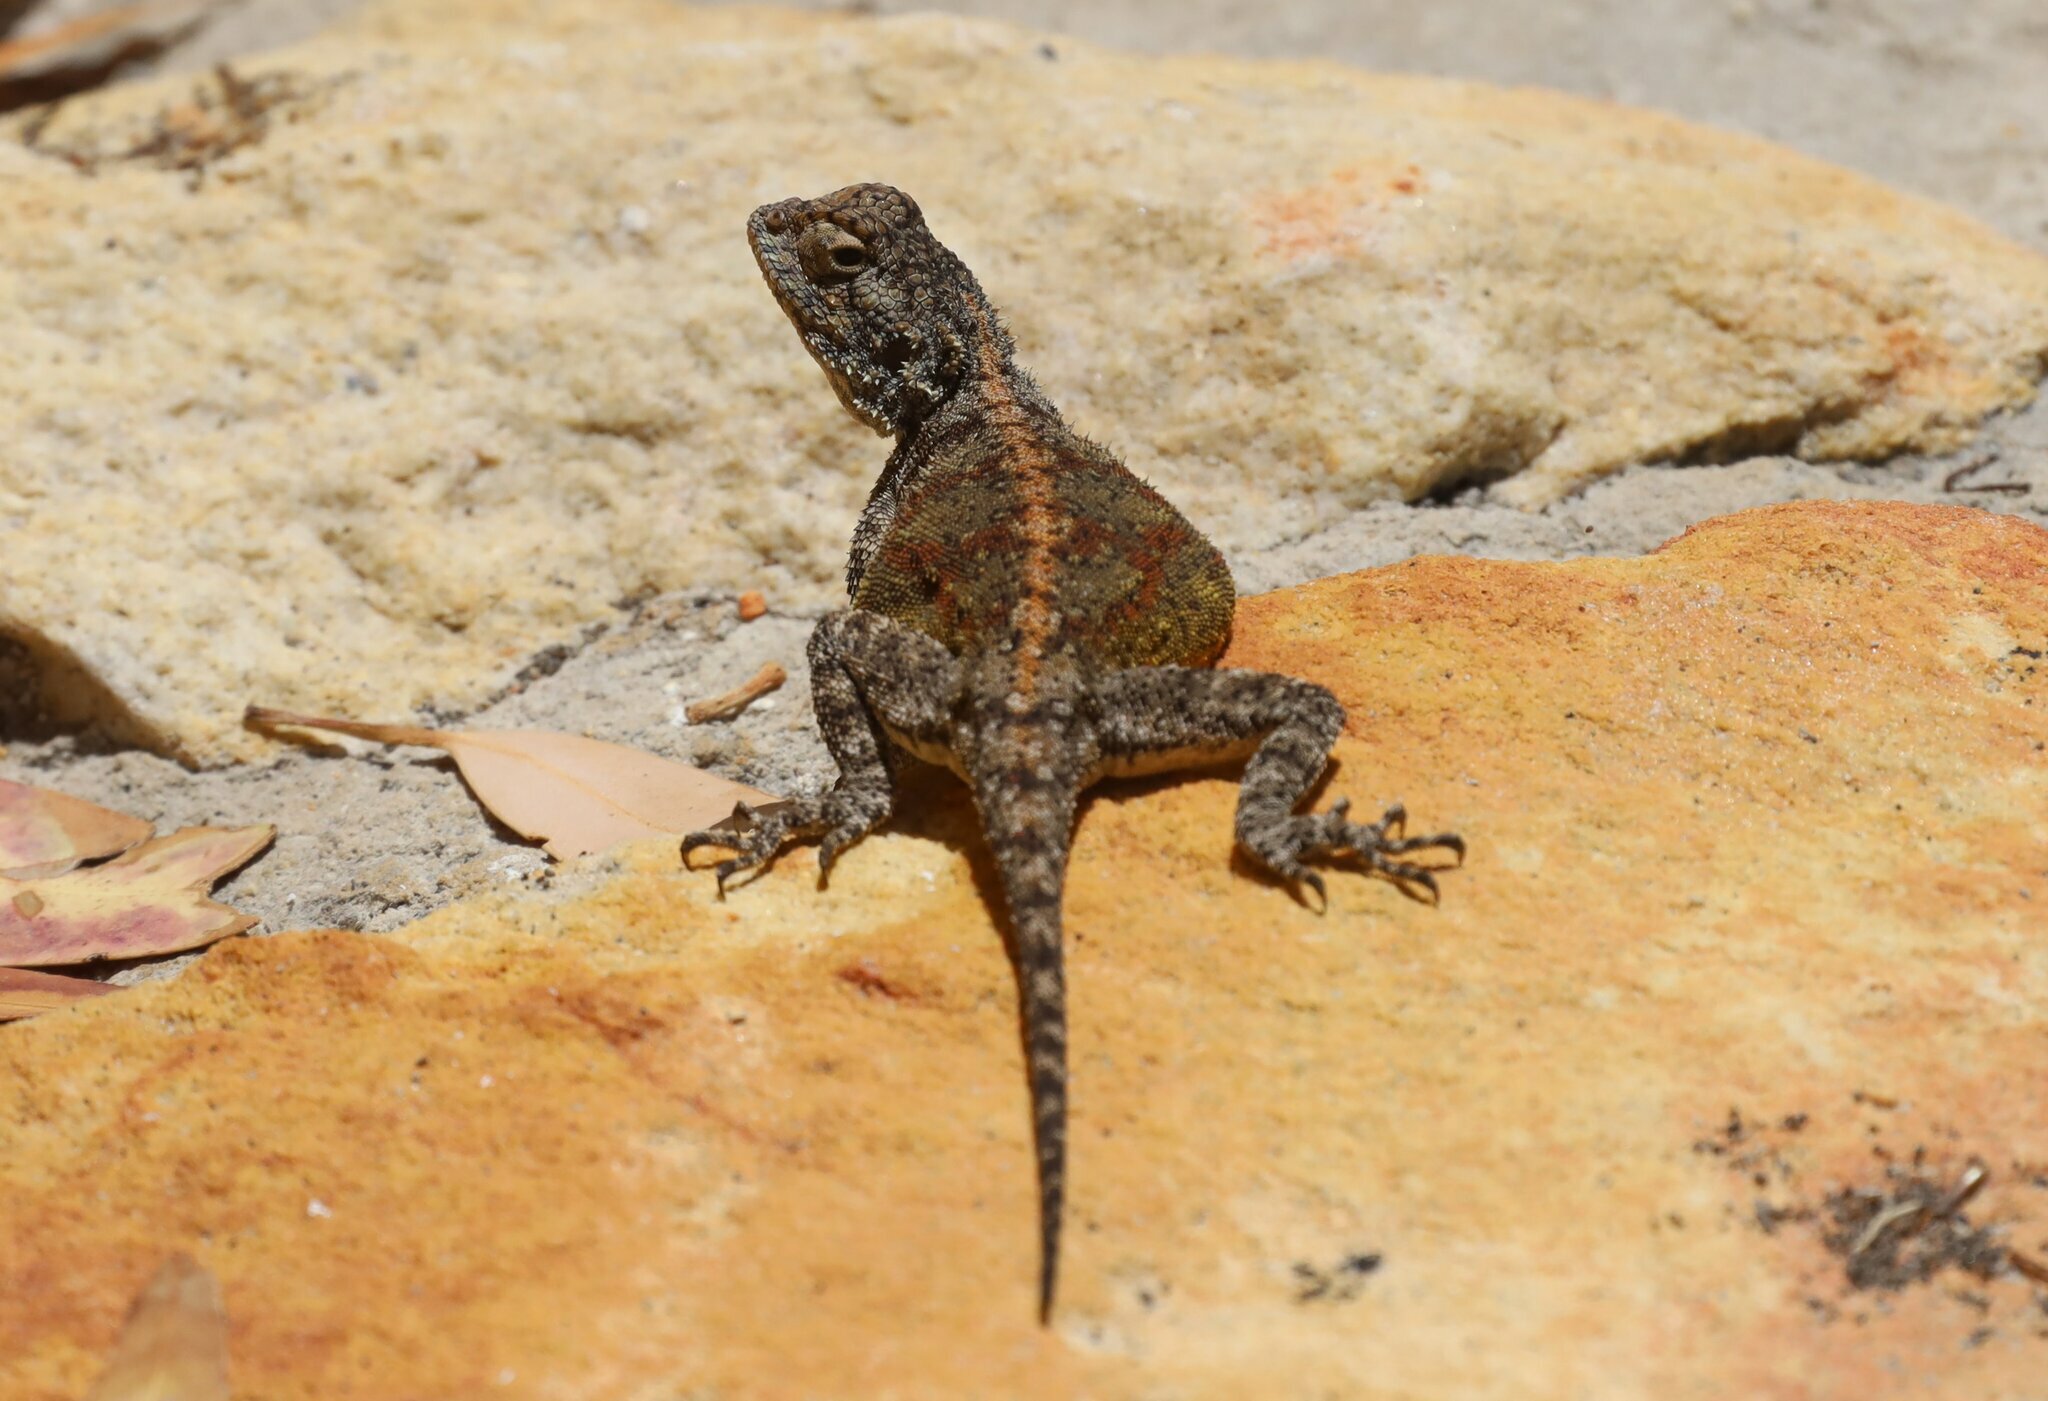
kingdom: Animalia
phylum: Chordata
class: Squamata
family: Agamidae
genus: Agama
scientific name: Agama atra
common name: Southern african rock agama
